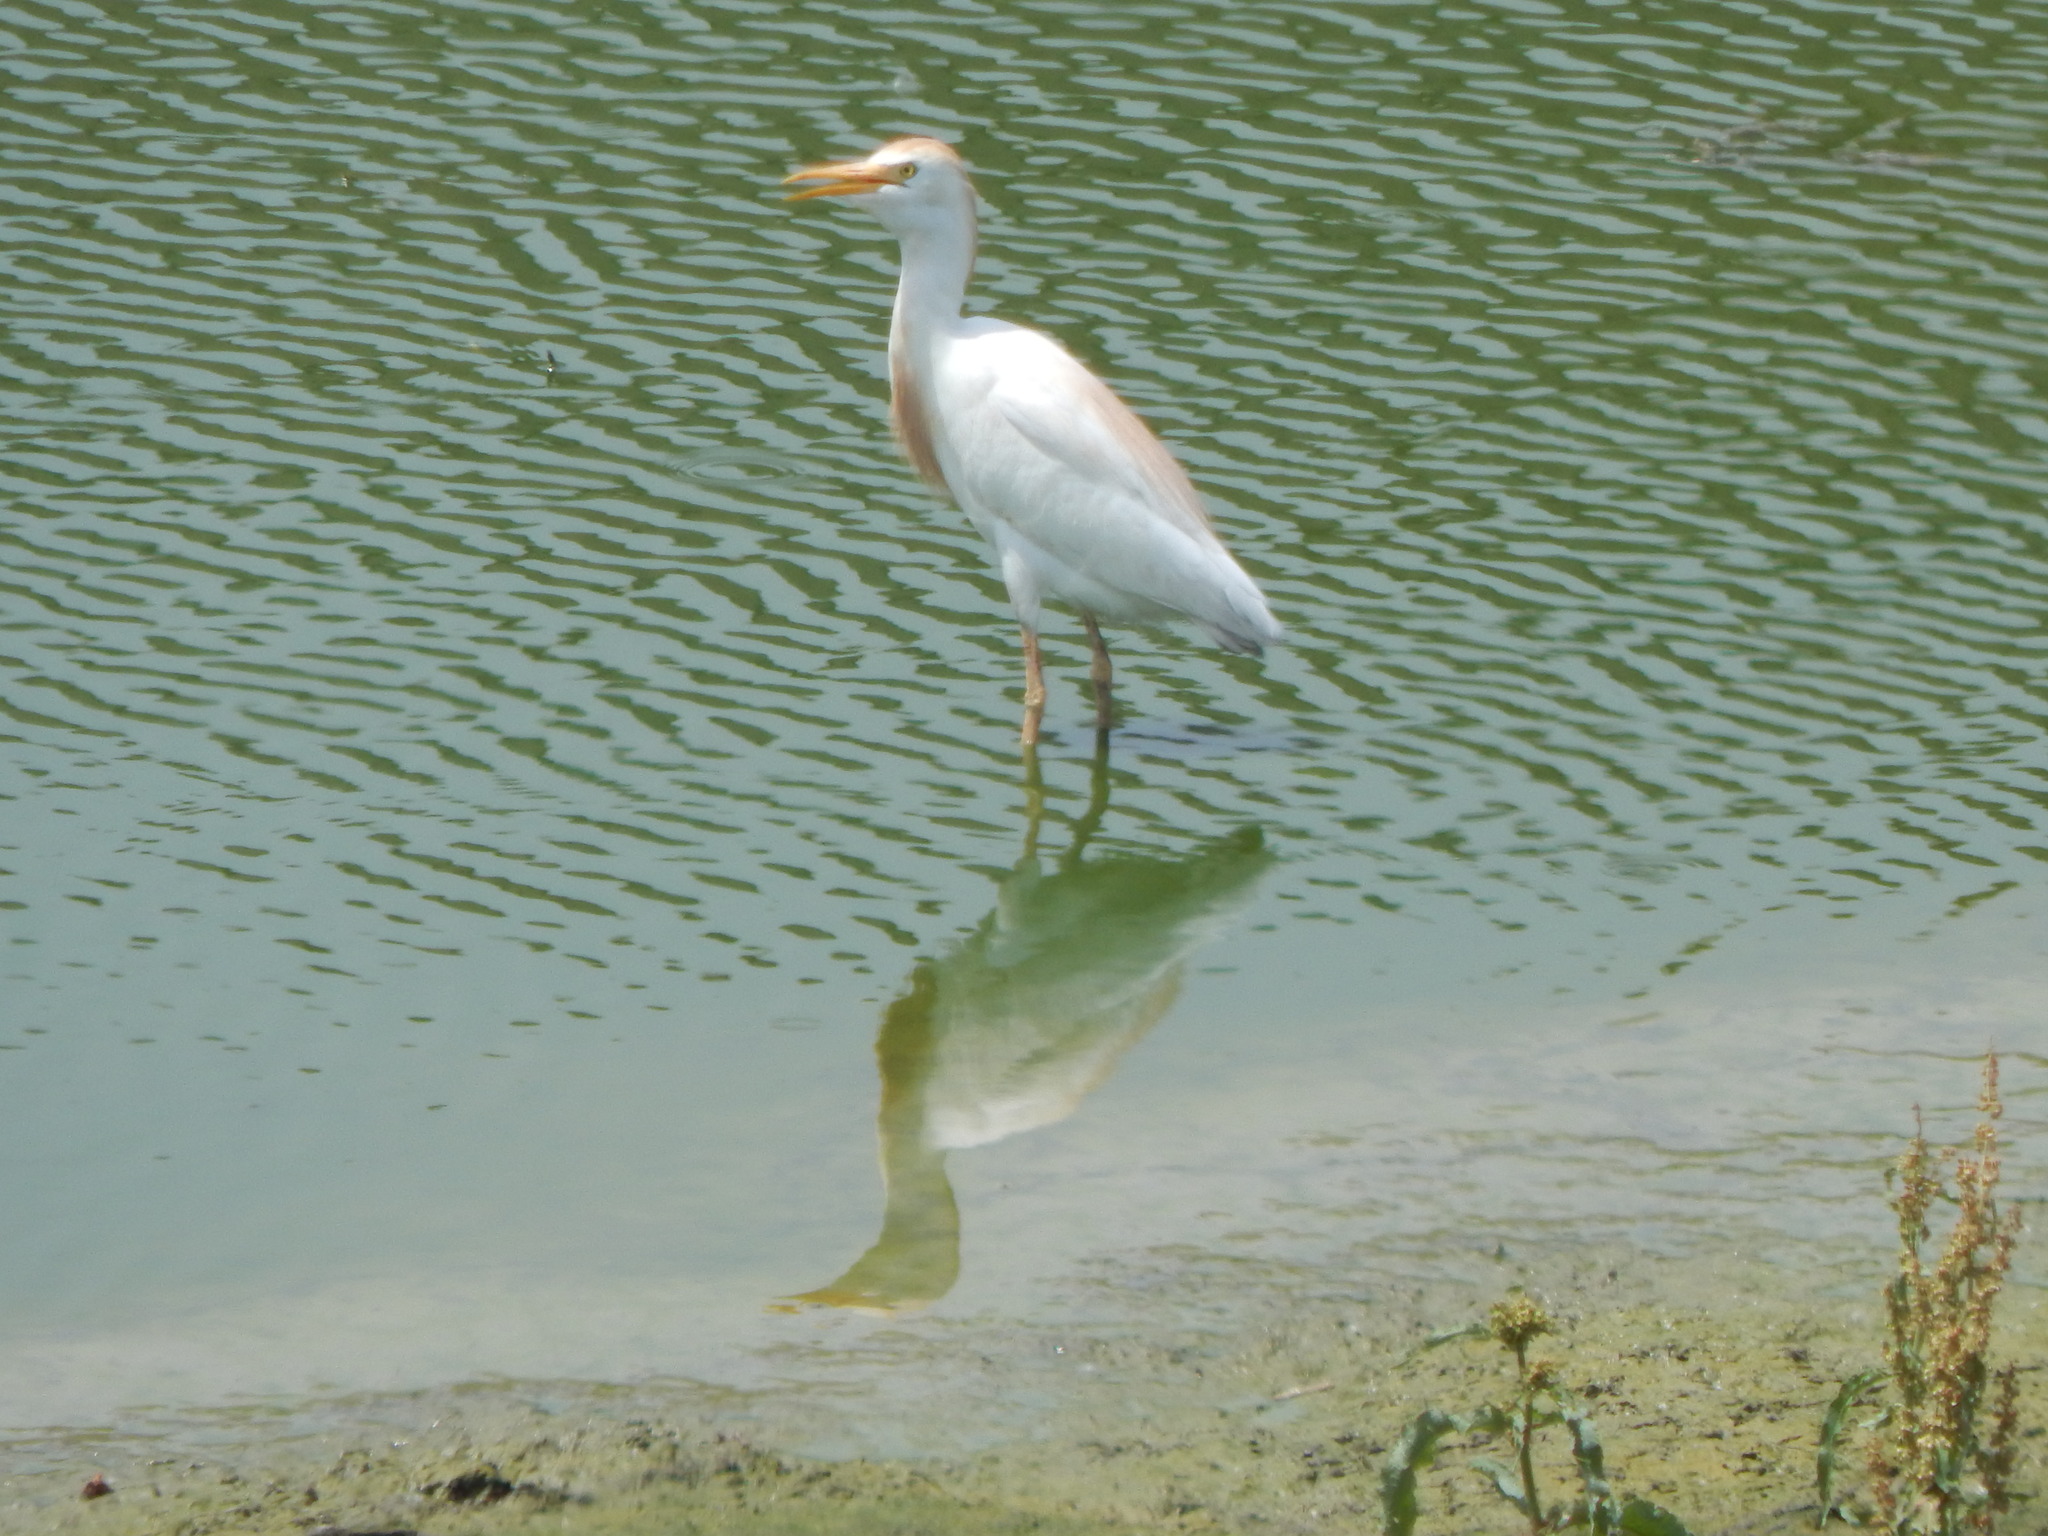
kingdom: Animalia
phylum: Chordata
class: Aves
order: Pelecaniformes
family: Ardeidae
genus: Bubulcus
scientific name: Bubulcus ibis
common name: Cattle egret
